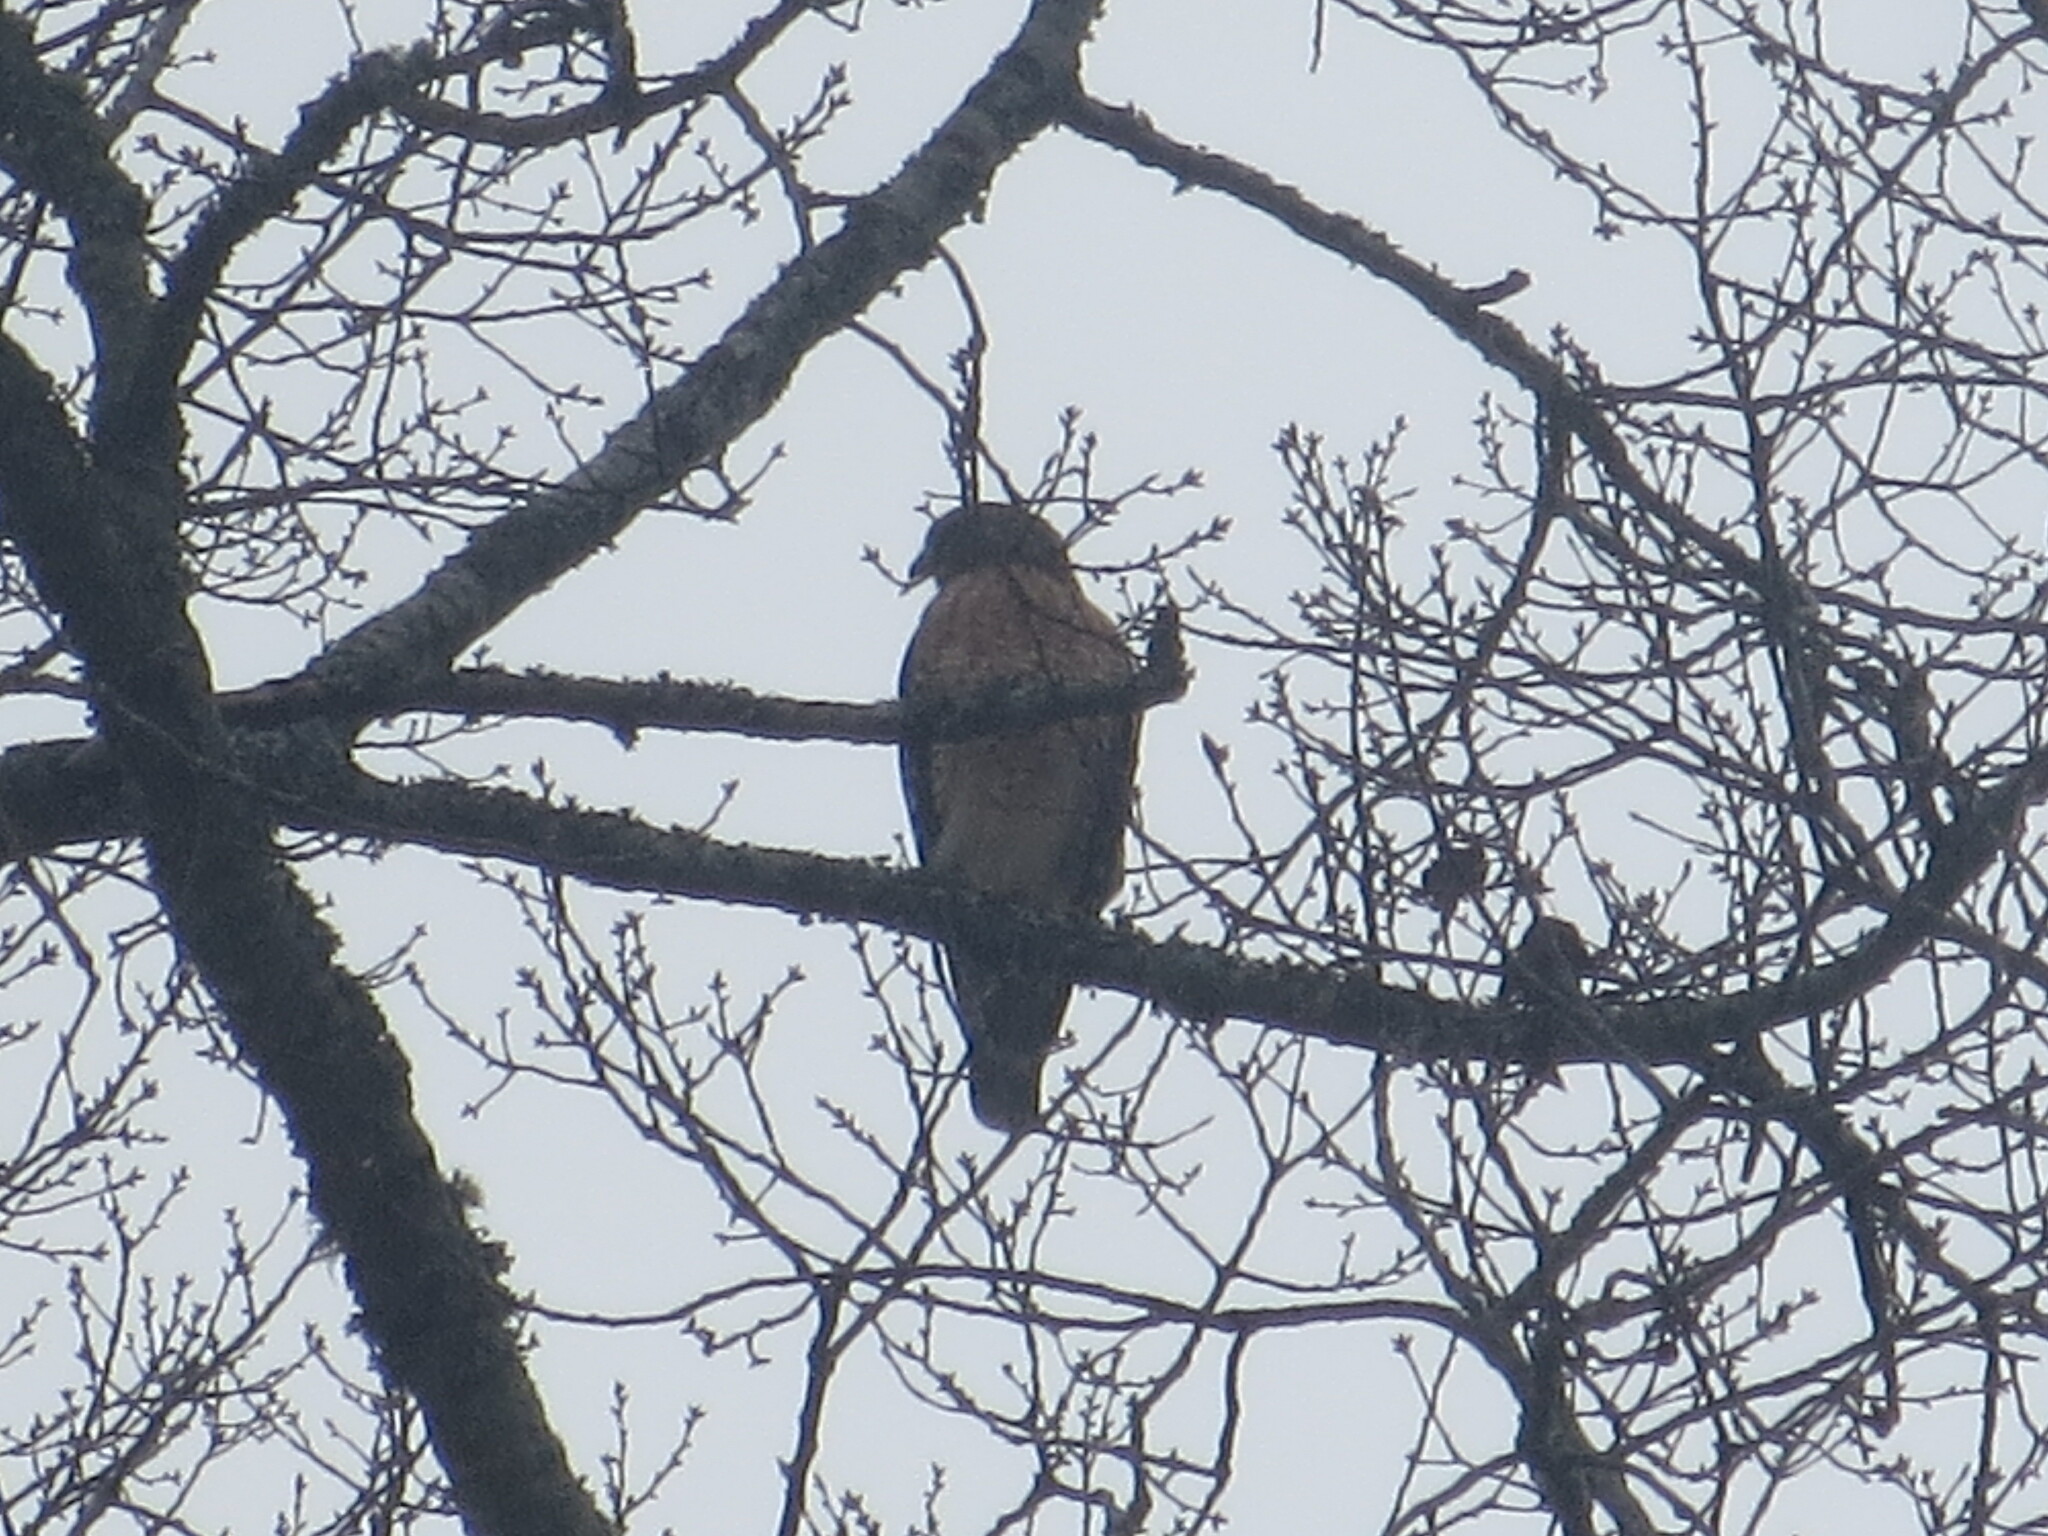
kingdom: Animalia
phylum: Chordata
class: Aves
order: Accipitriformes
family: Accipitridae
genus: Buteo
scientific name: Buteo lineatus
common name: Red-shouldered hawk
